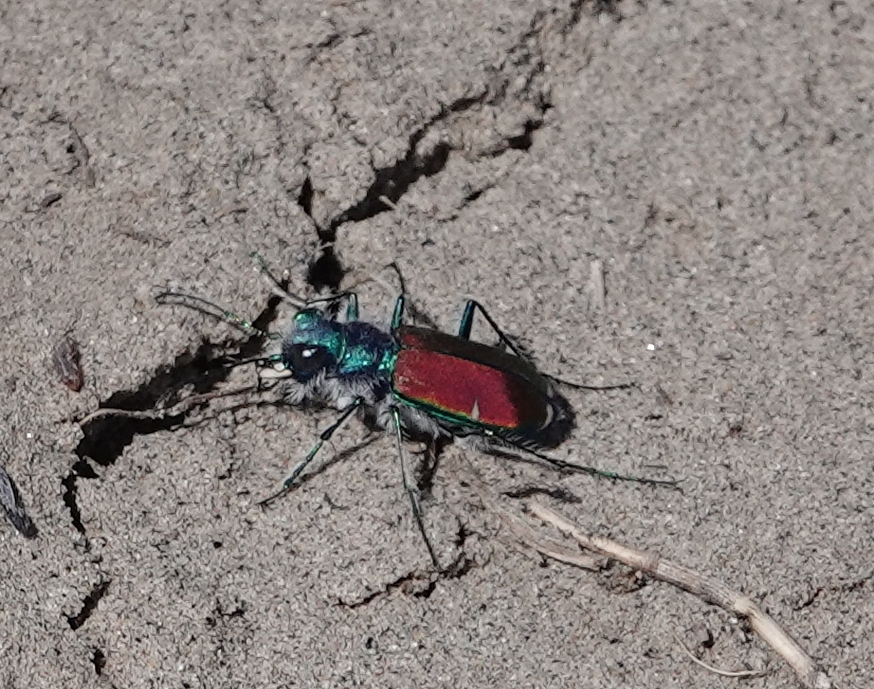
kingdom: Animalia
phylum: Arthropoda
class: Insecta
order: Coleoptera
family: Carabidae
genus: Cicindela
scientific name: Cicindela splendida
